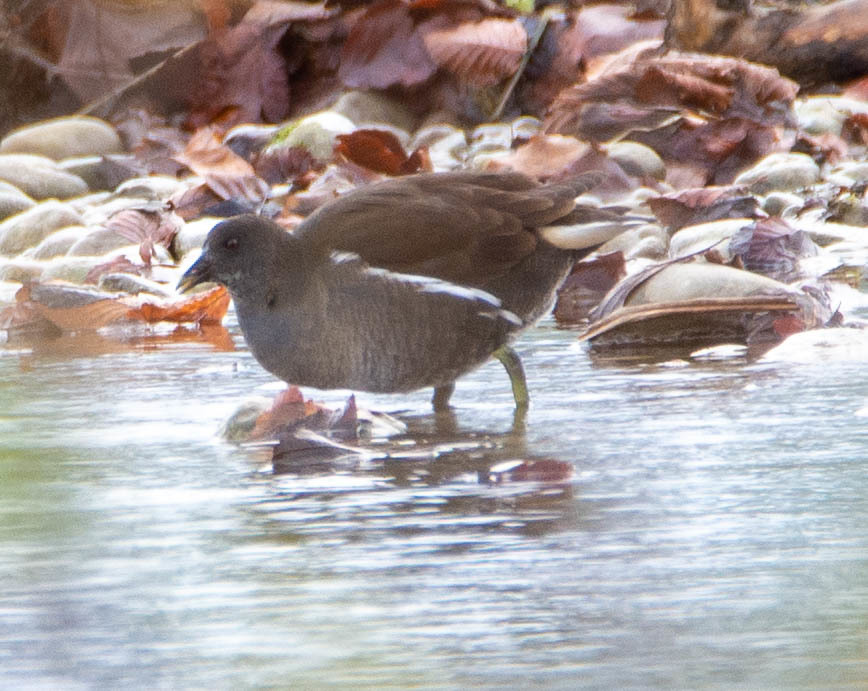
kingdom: Animalia
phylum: Chordata
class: Aves
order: Gruiformes
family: Rallidae
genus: Gallinula
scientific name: Gallinula chloropus
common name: Common moorhen
